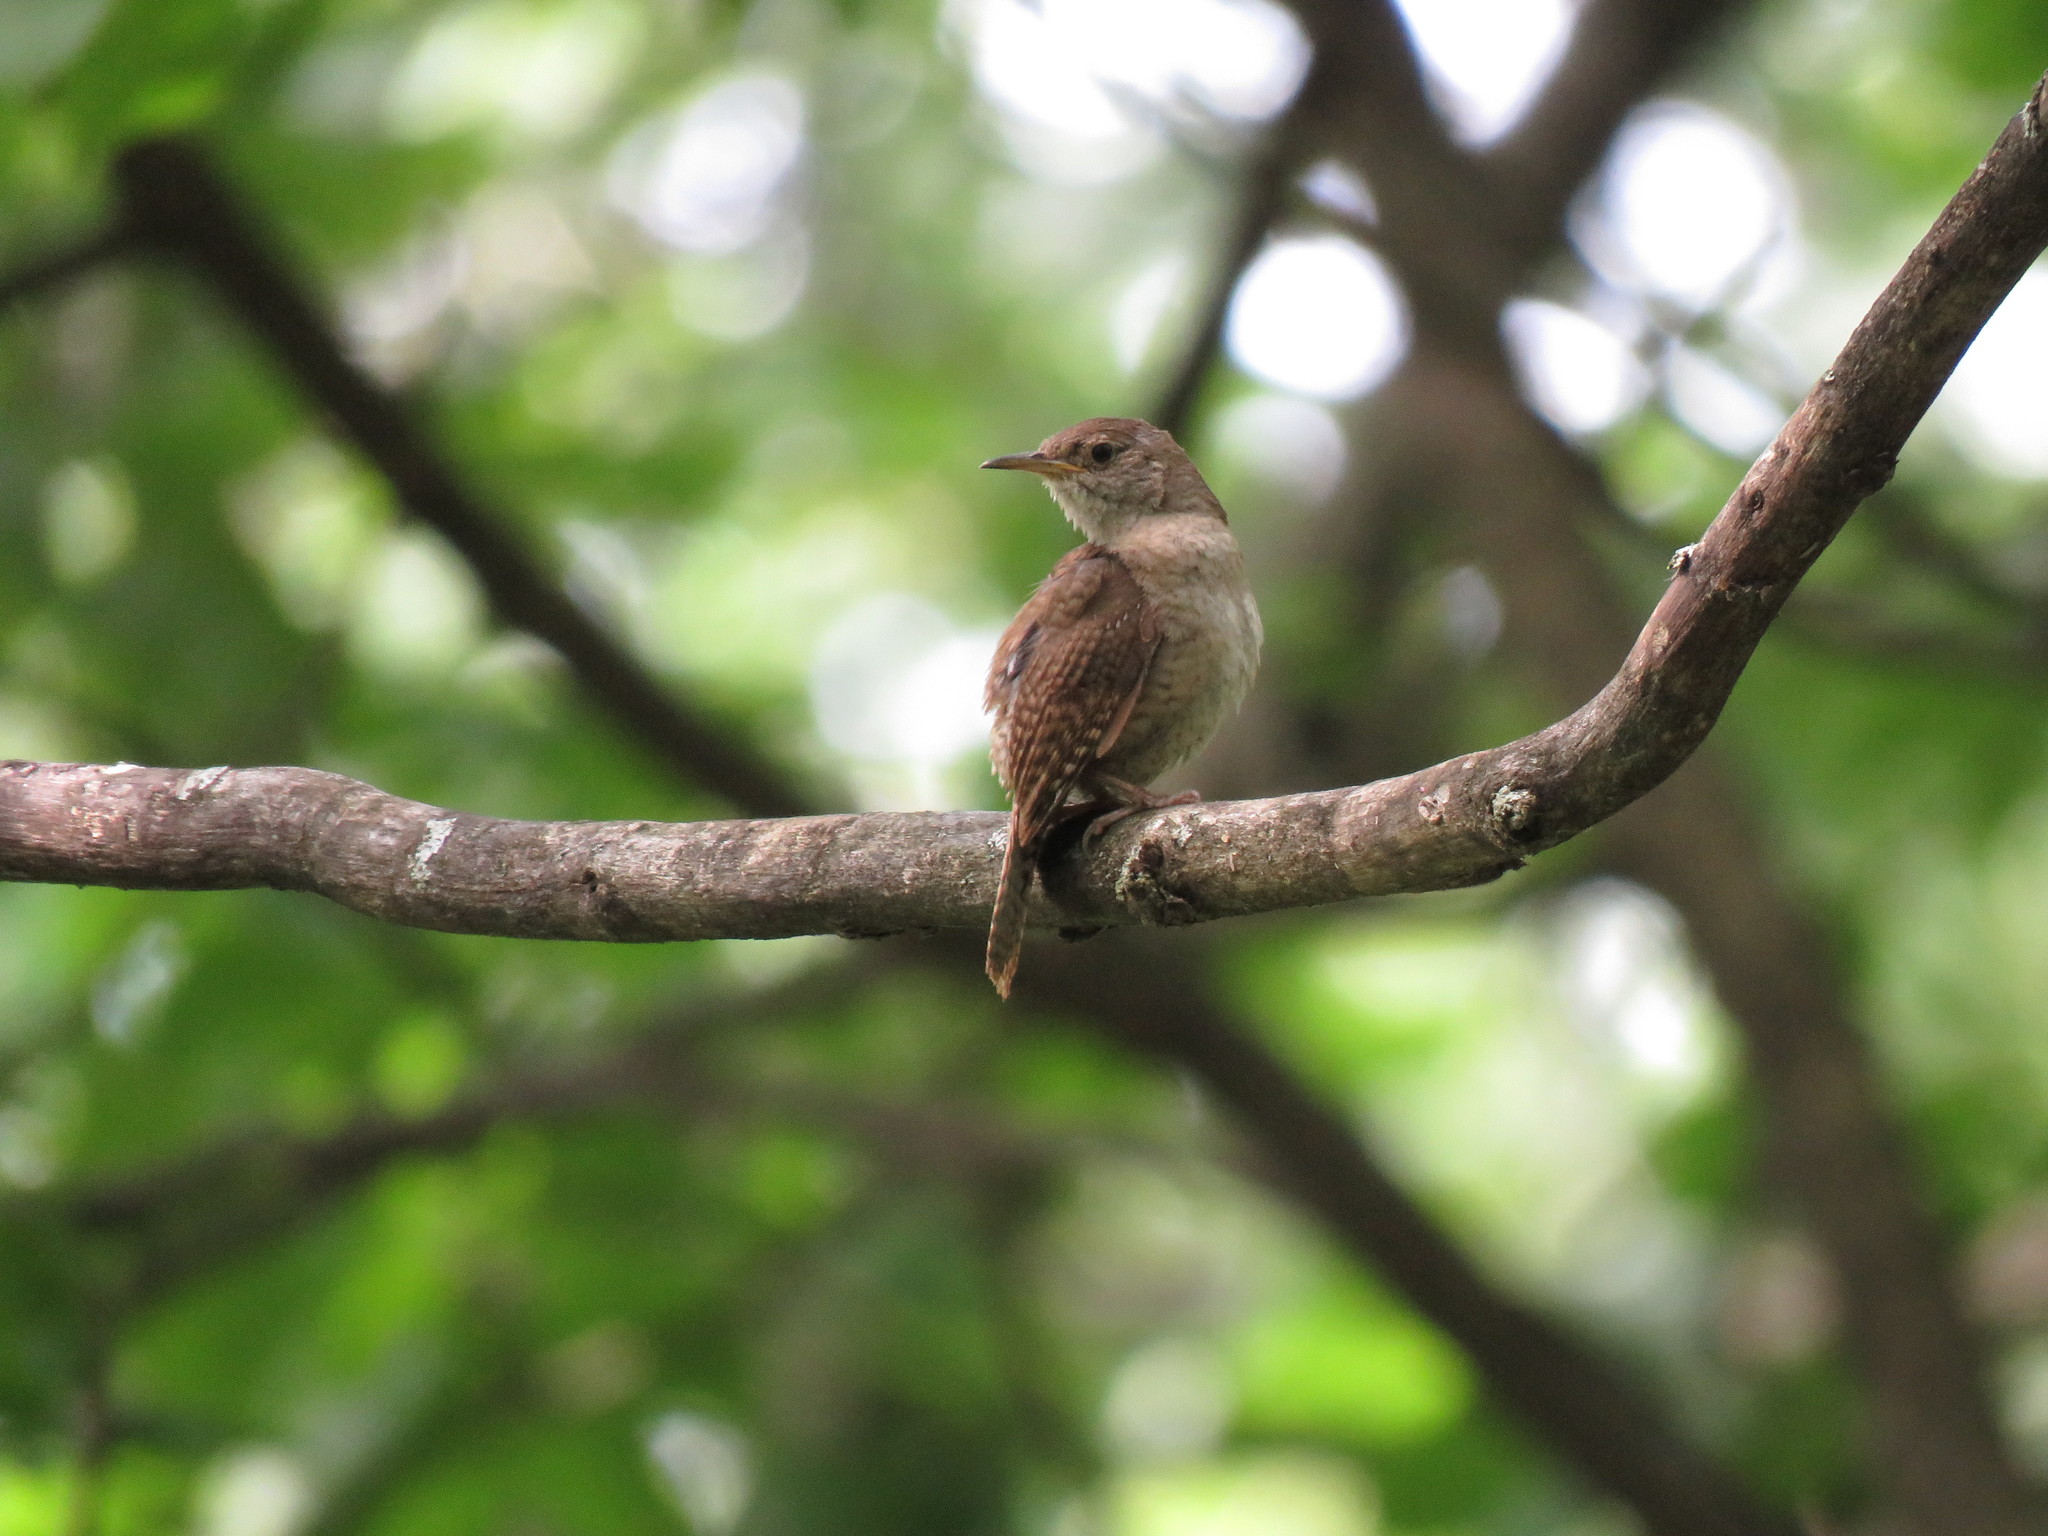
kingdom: Animalia
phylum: Chordata
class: Aves
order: Passeriformes
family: Troglodytidae
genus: Troglodytes
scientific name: Troglodytes aedon
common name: House wren
